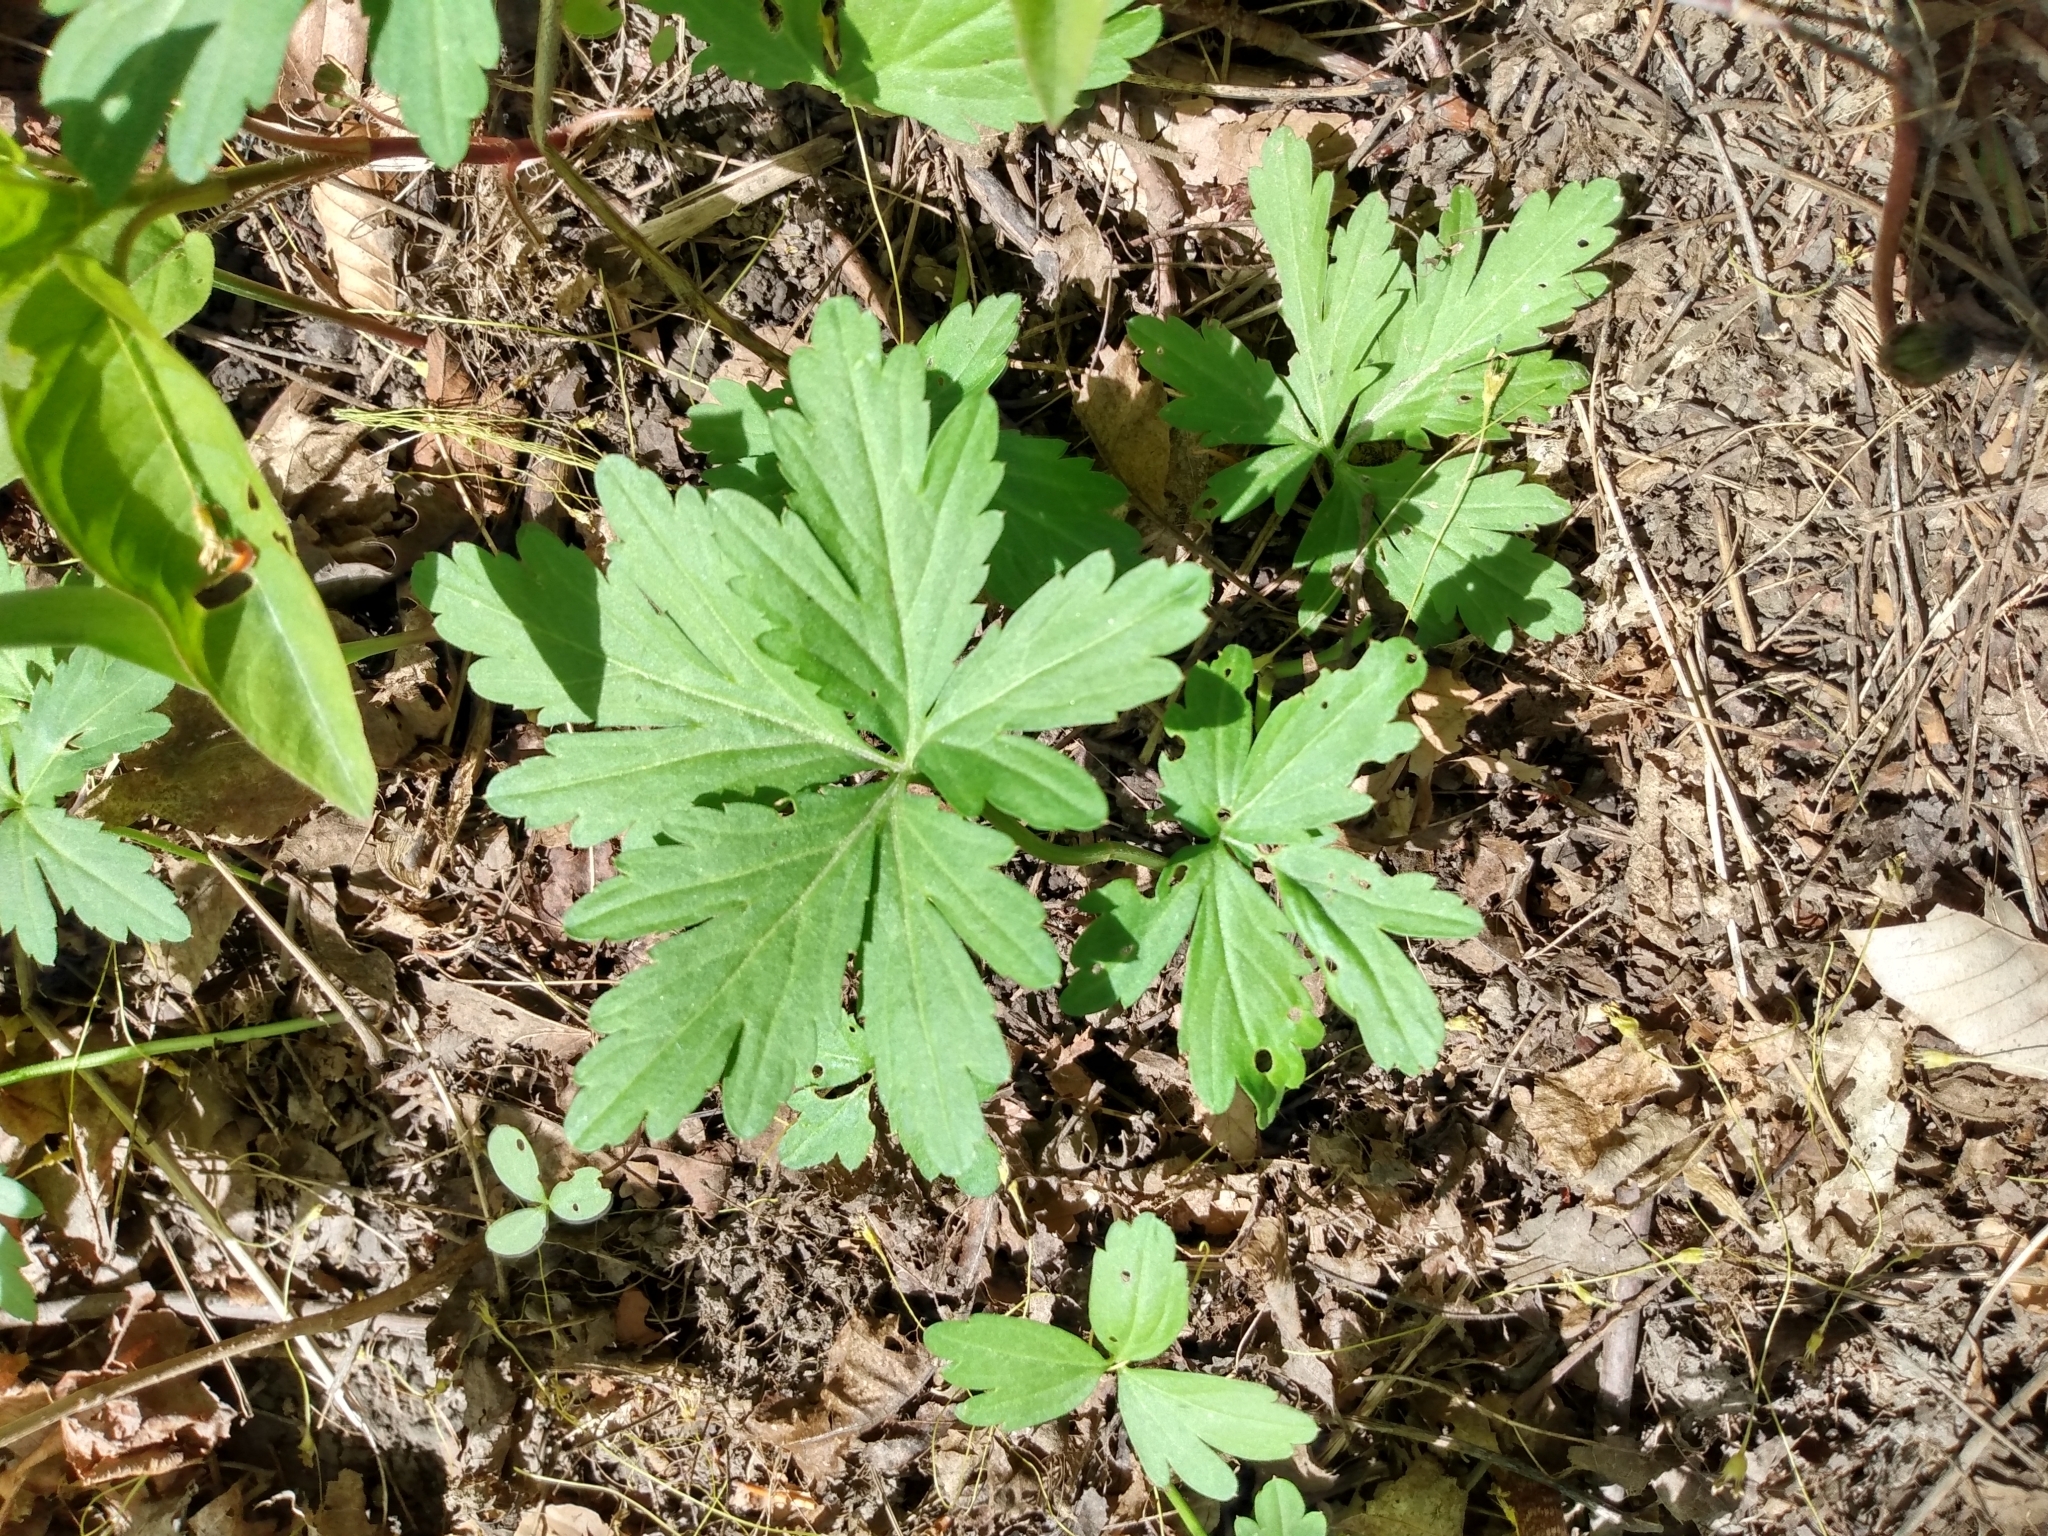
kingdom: Plantae
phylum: Tracheophyta
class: Magnoliopsida
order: Brassicales
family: Brassicaceae
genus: Cardamine
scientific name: Cardamine concatenata
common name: Cut-leaf toothcup
